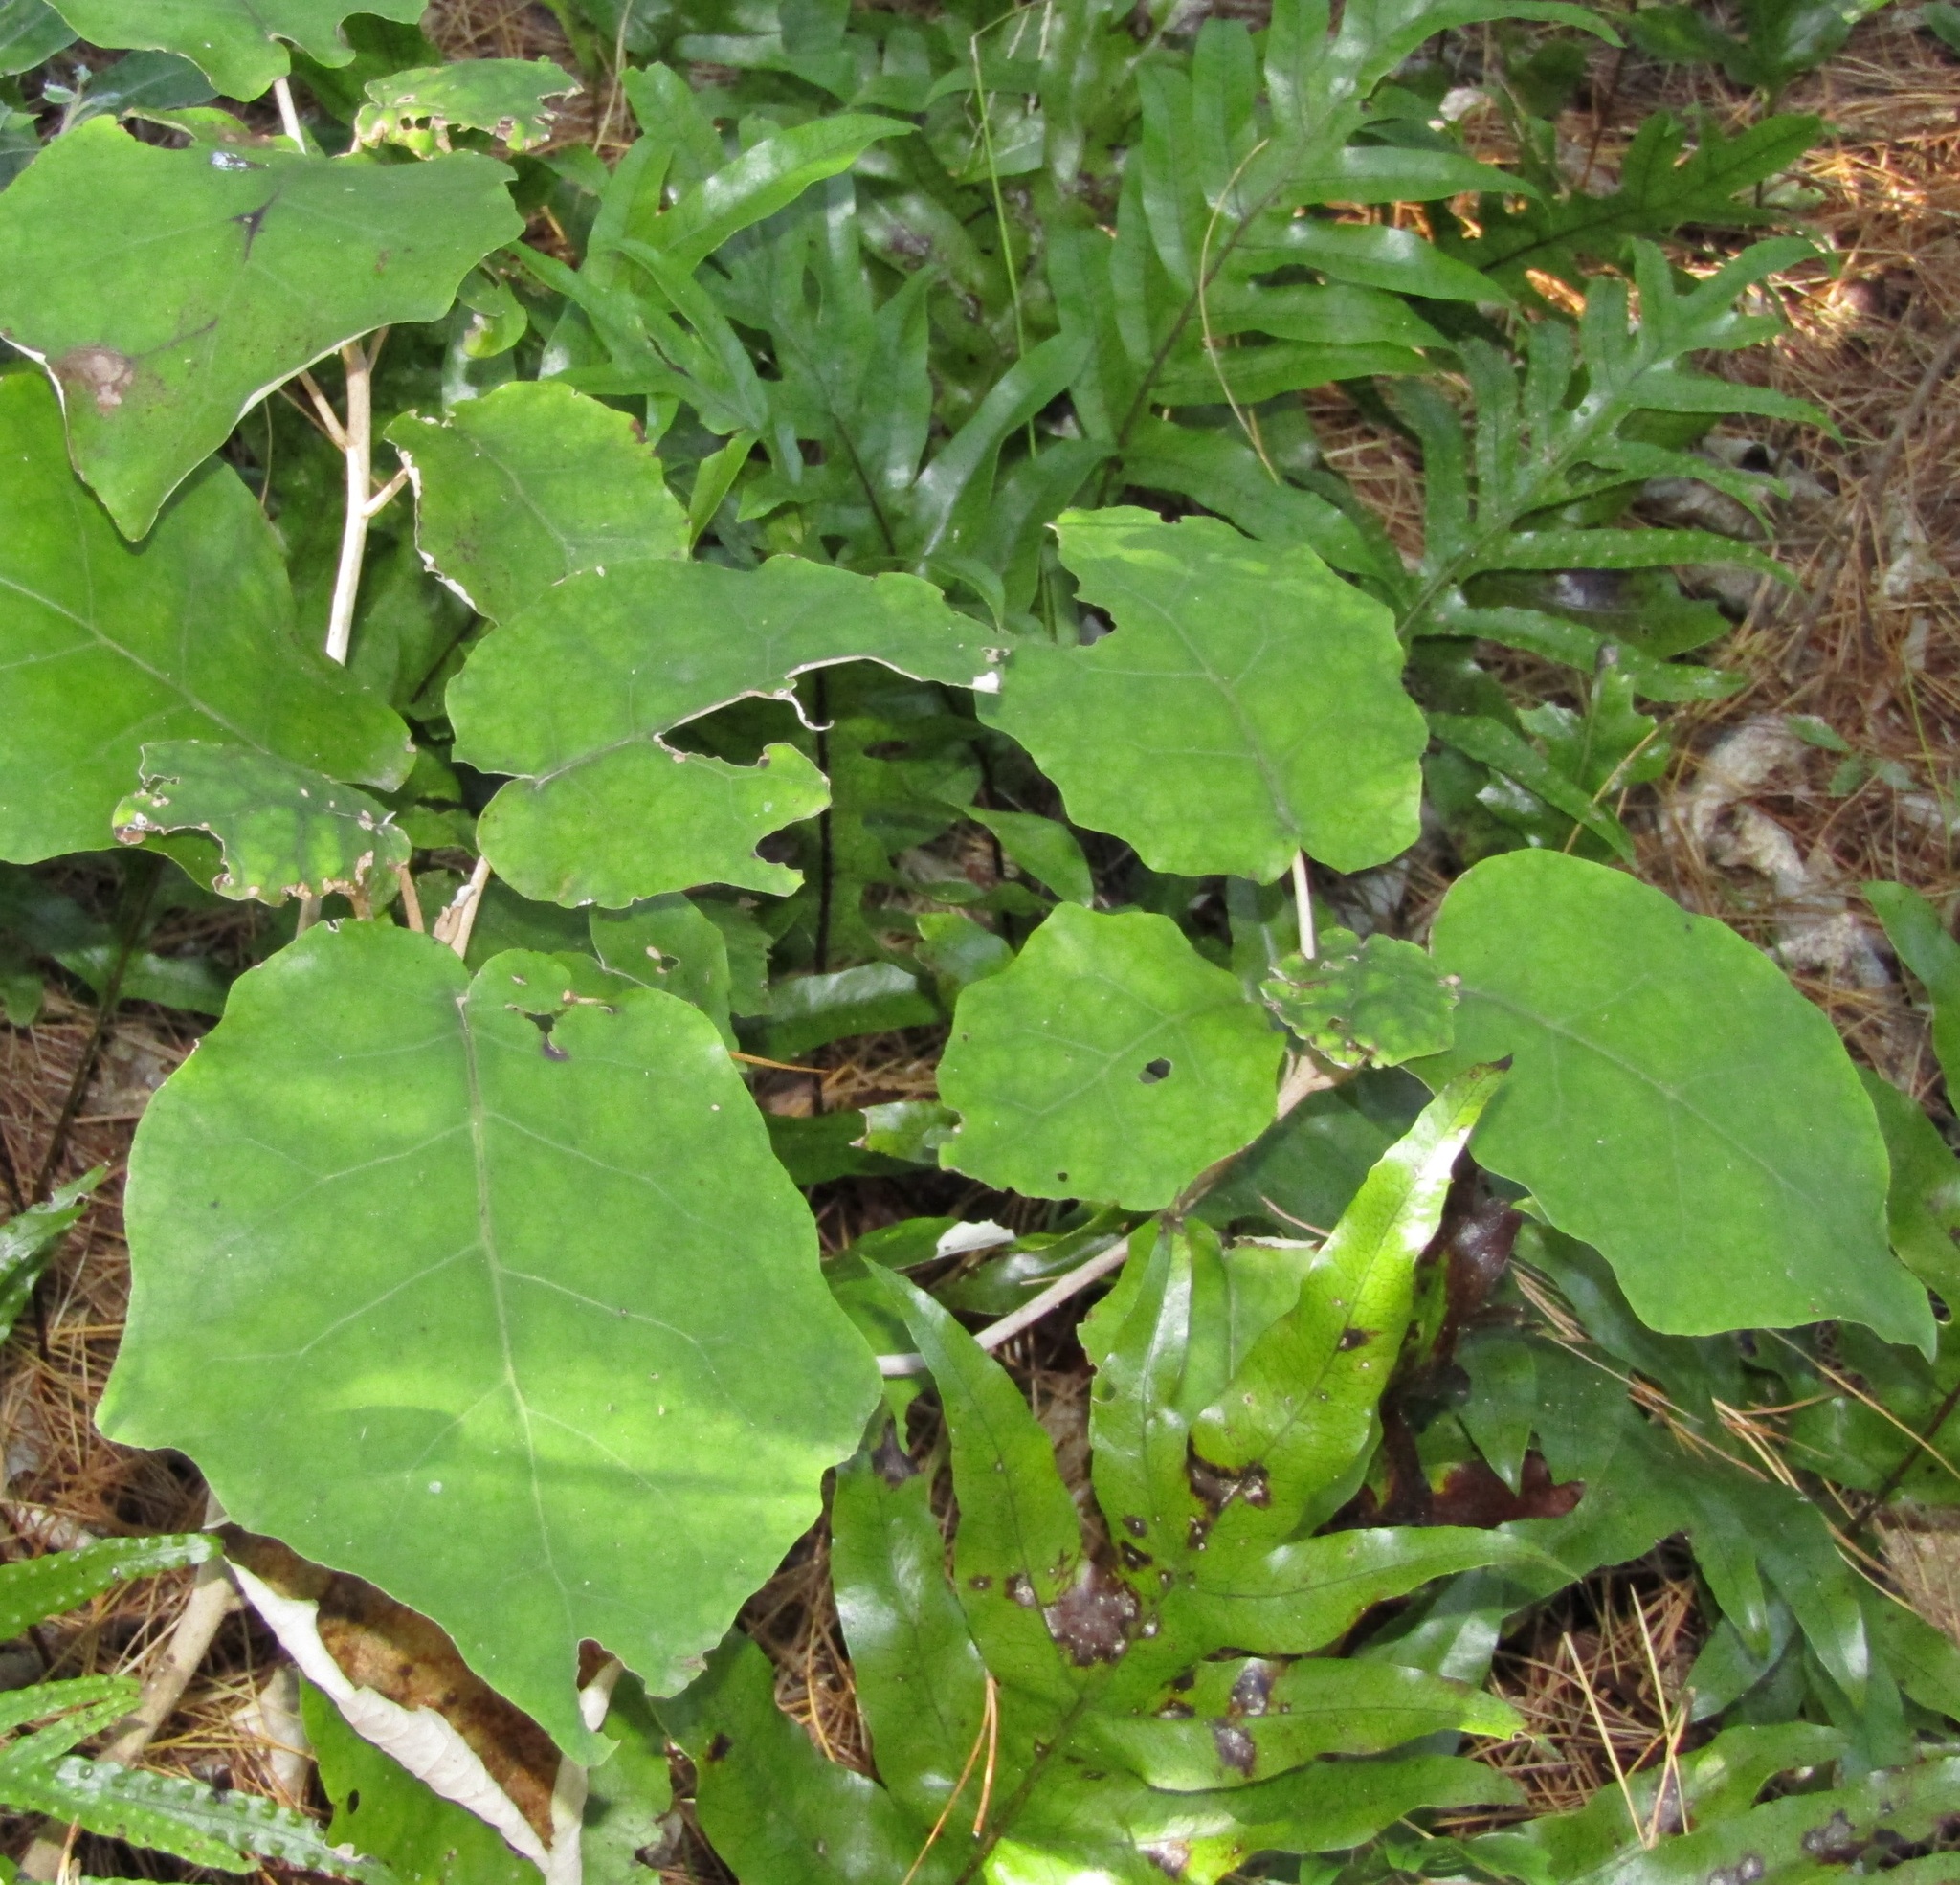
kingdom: Plantae
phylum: Tracheophyta
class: Magnoliopsida
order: Asterales
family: Asteraceae
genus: Brachyglottis
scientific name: Brachyglottis repanda
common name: Hedge ragwort
